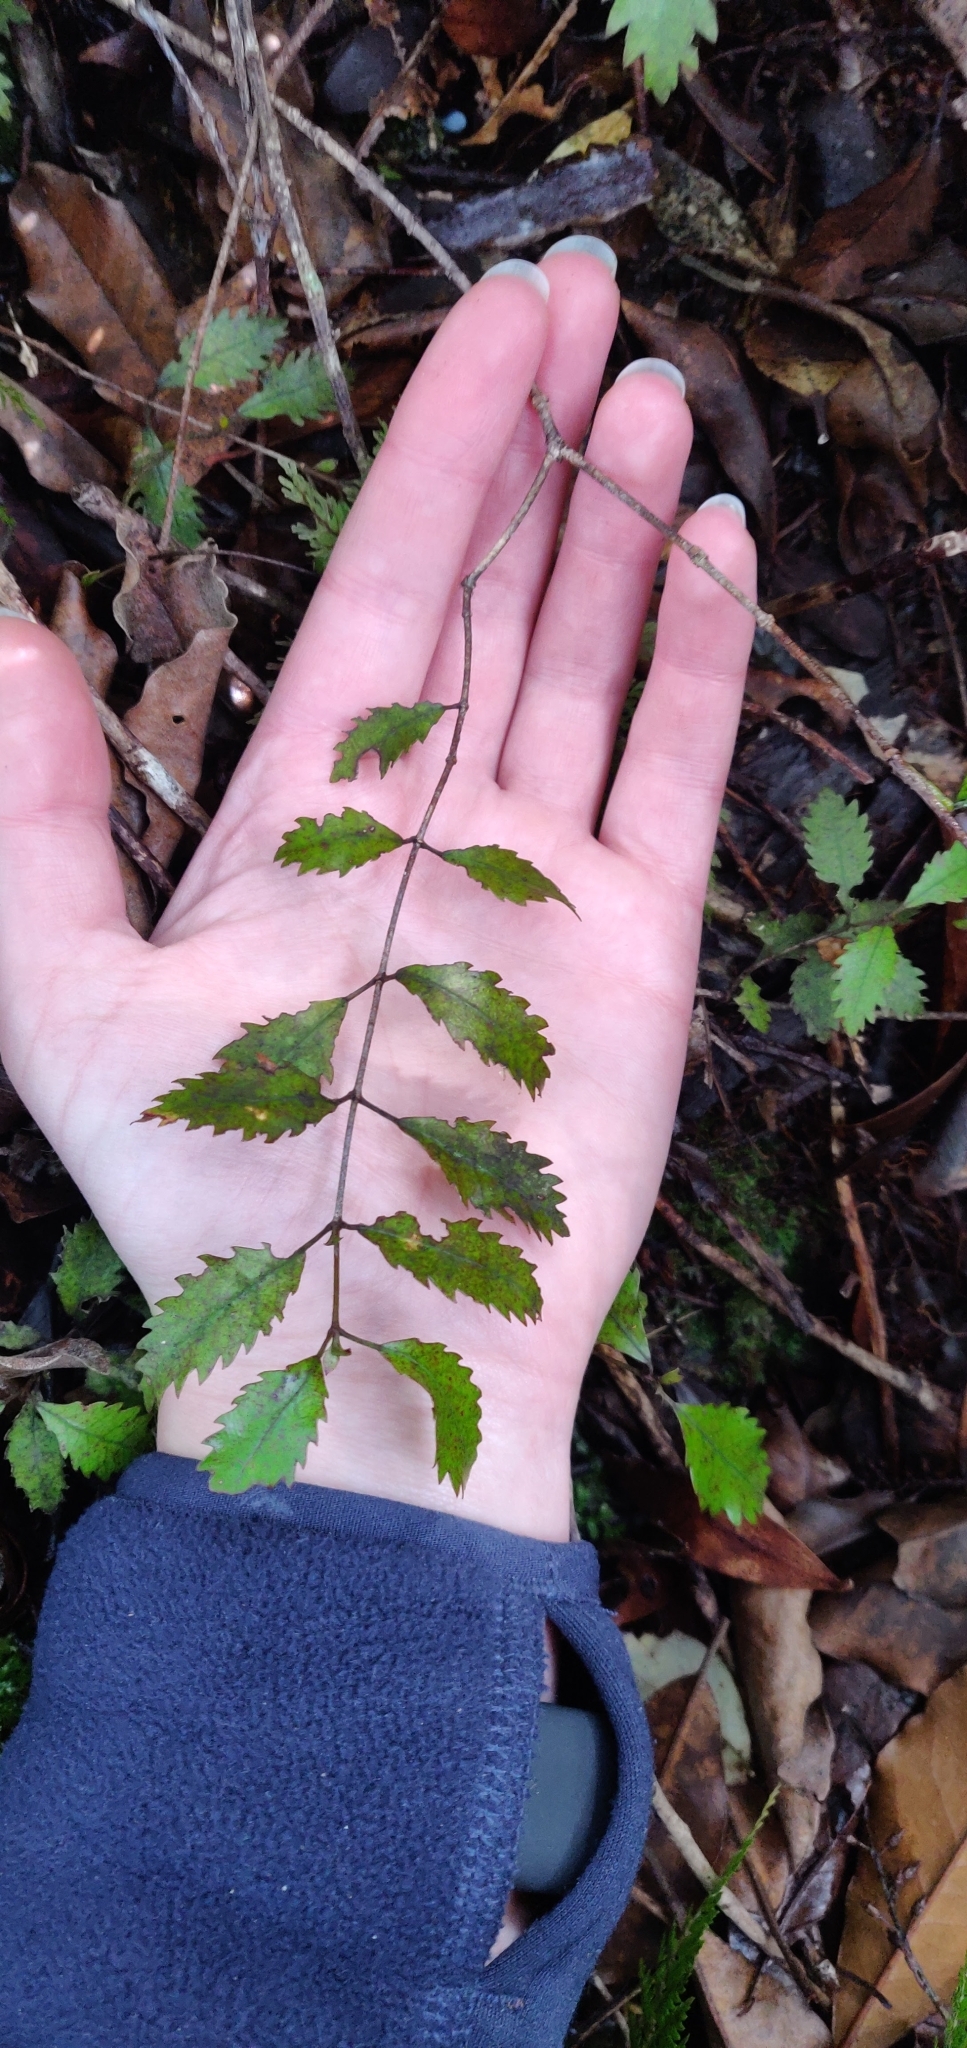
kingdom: Plantae
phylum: Tracheophyta
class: Magnoliopsida
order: Oxalidales
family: Cunoniaceae
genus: Pterophylla
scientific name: Pterophylla racemosa
